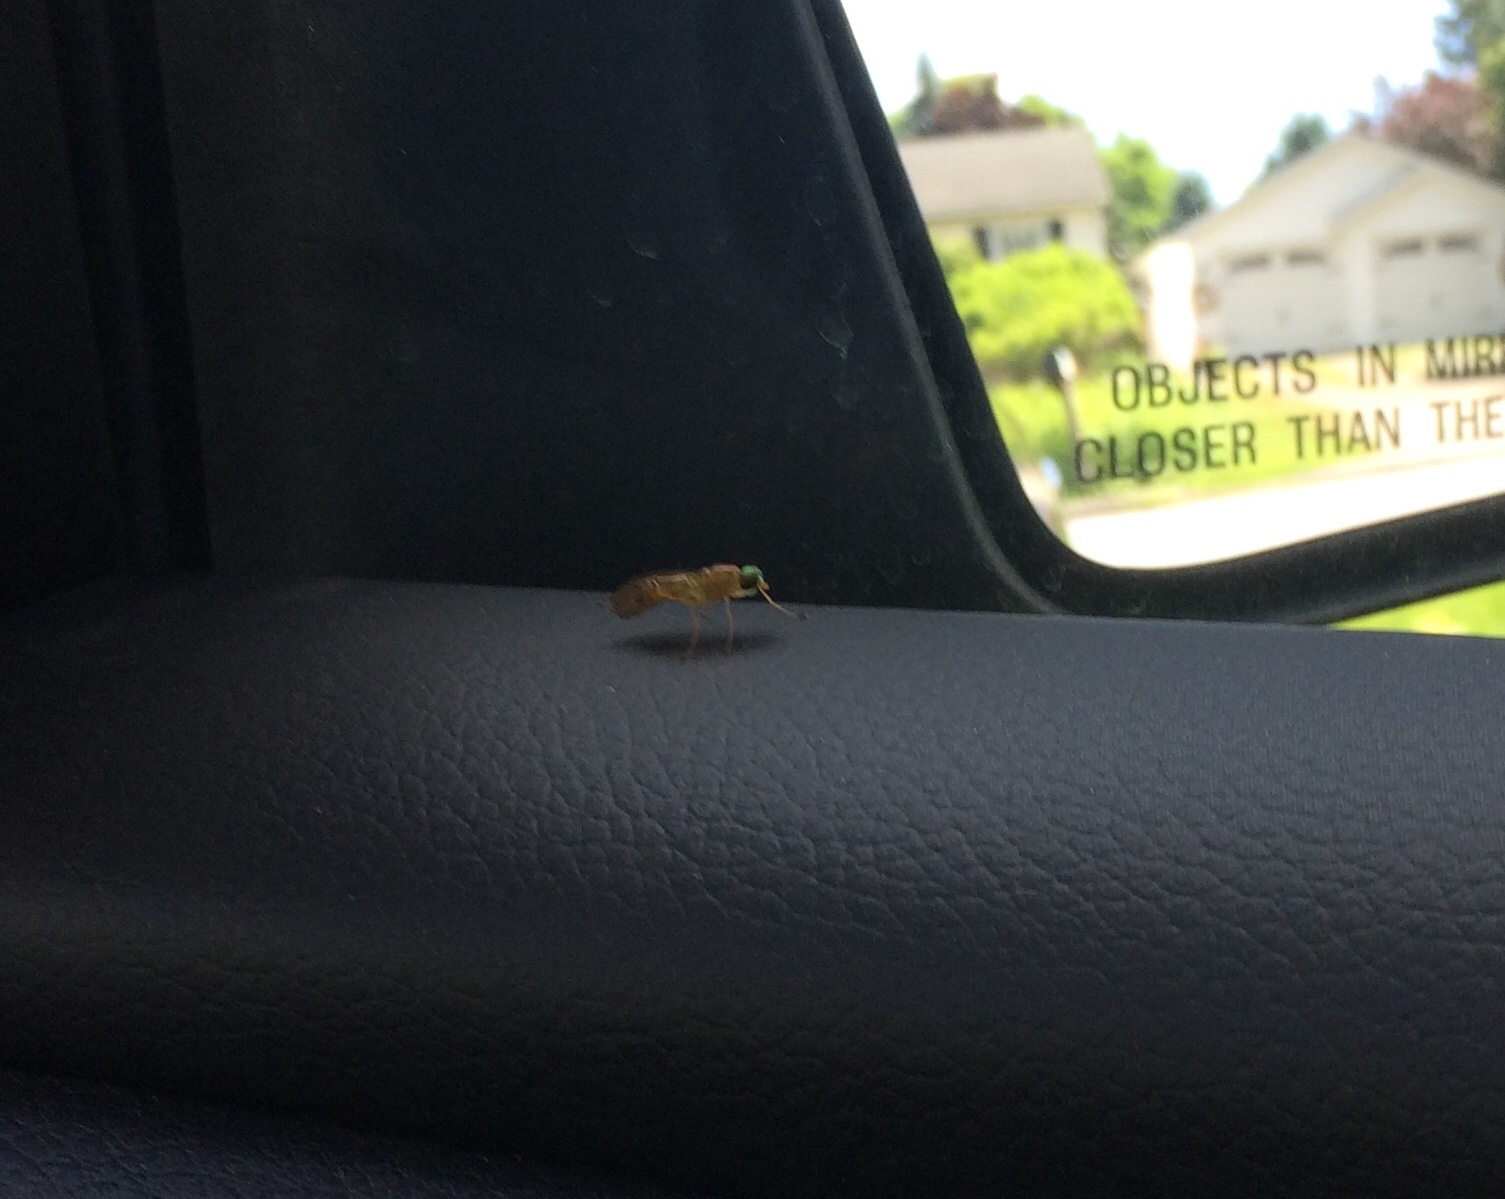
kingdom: Animalia
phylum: Arthropoda
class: Insecta
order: Diptera
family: Stratiomyidae
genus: Ptecticus
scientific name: Ptecticus trivittatus
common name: Compost fly
